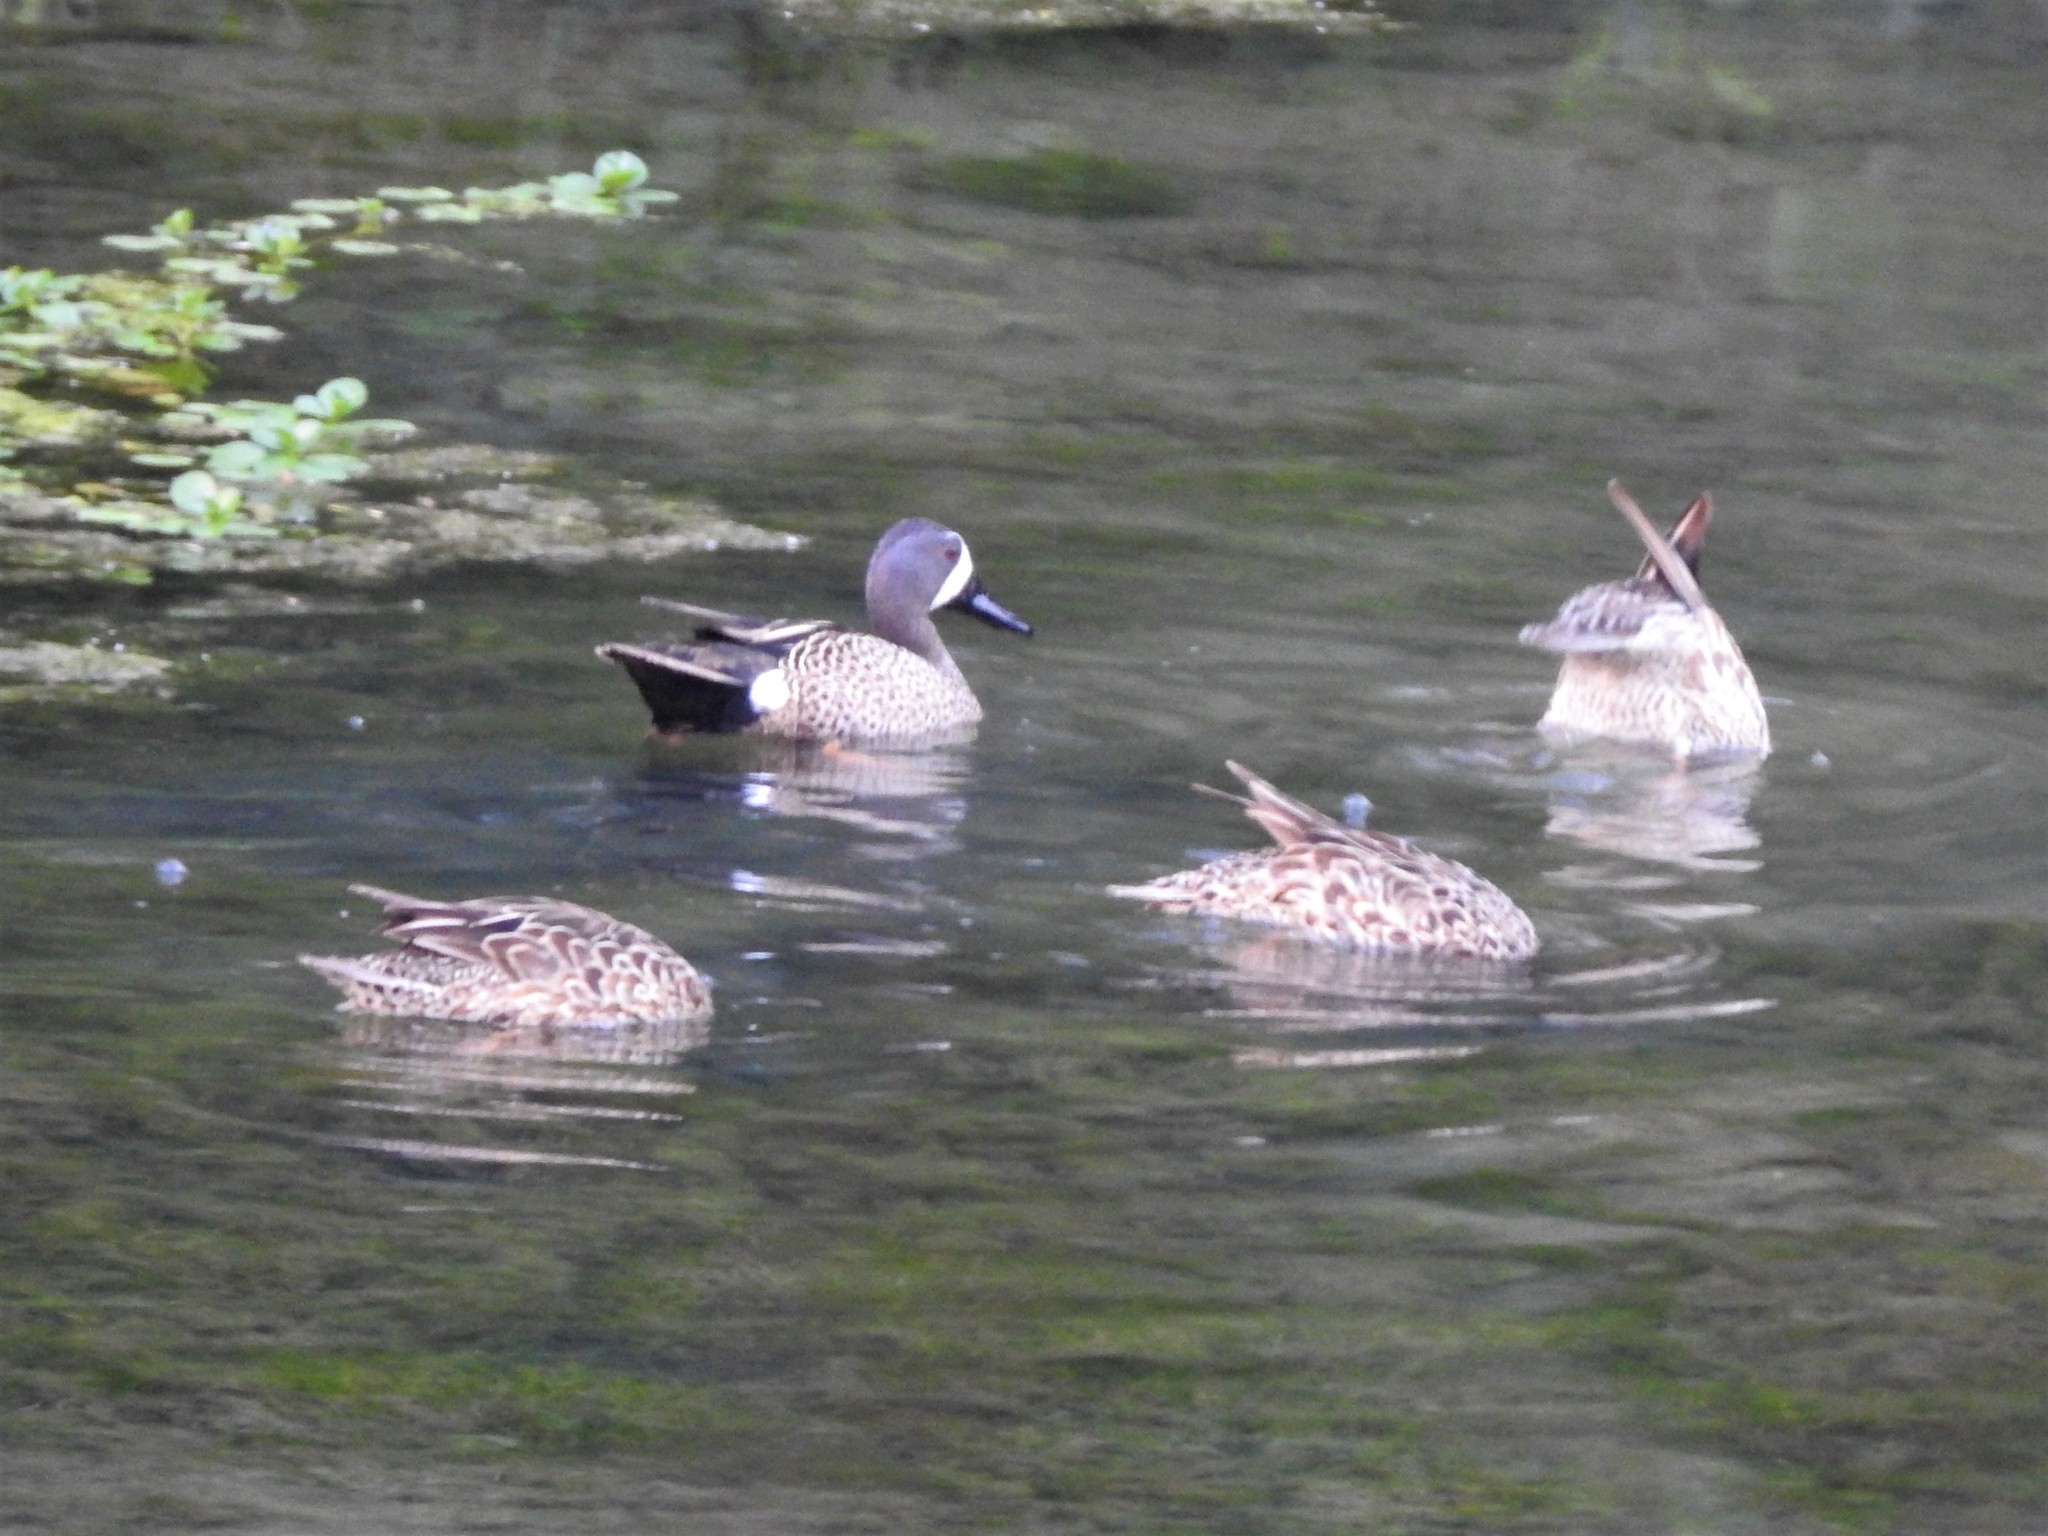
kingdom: Animalia
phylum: Chordata
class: Aves
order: Anseriformes
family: Anatidae
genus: Spatula
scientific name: Spatula discors
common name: Blue-winged teal
